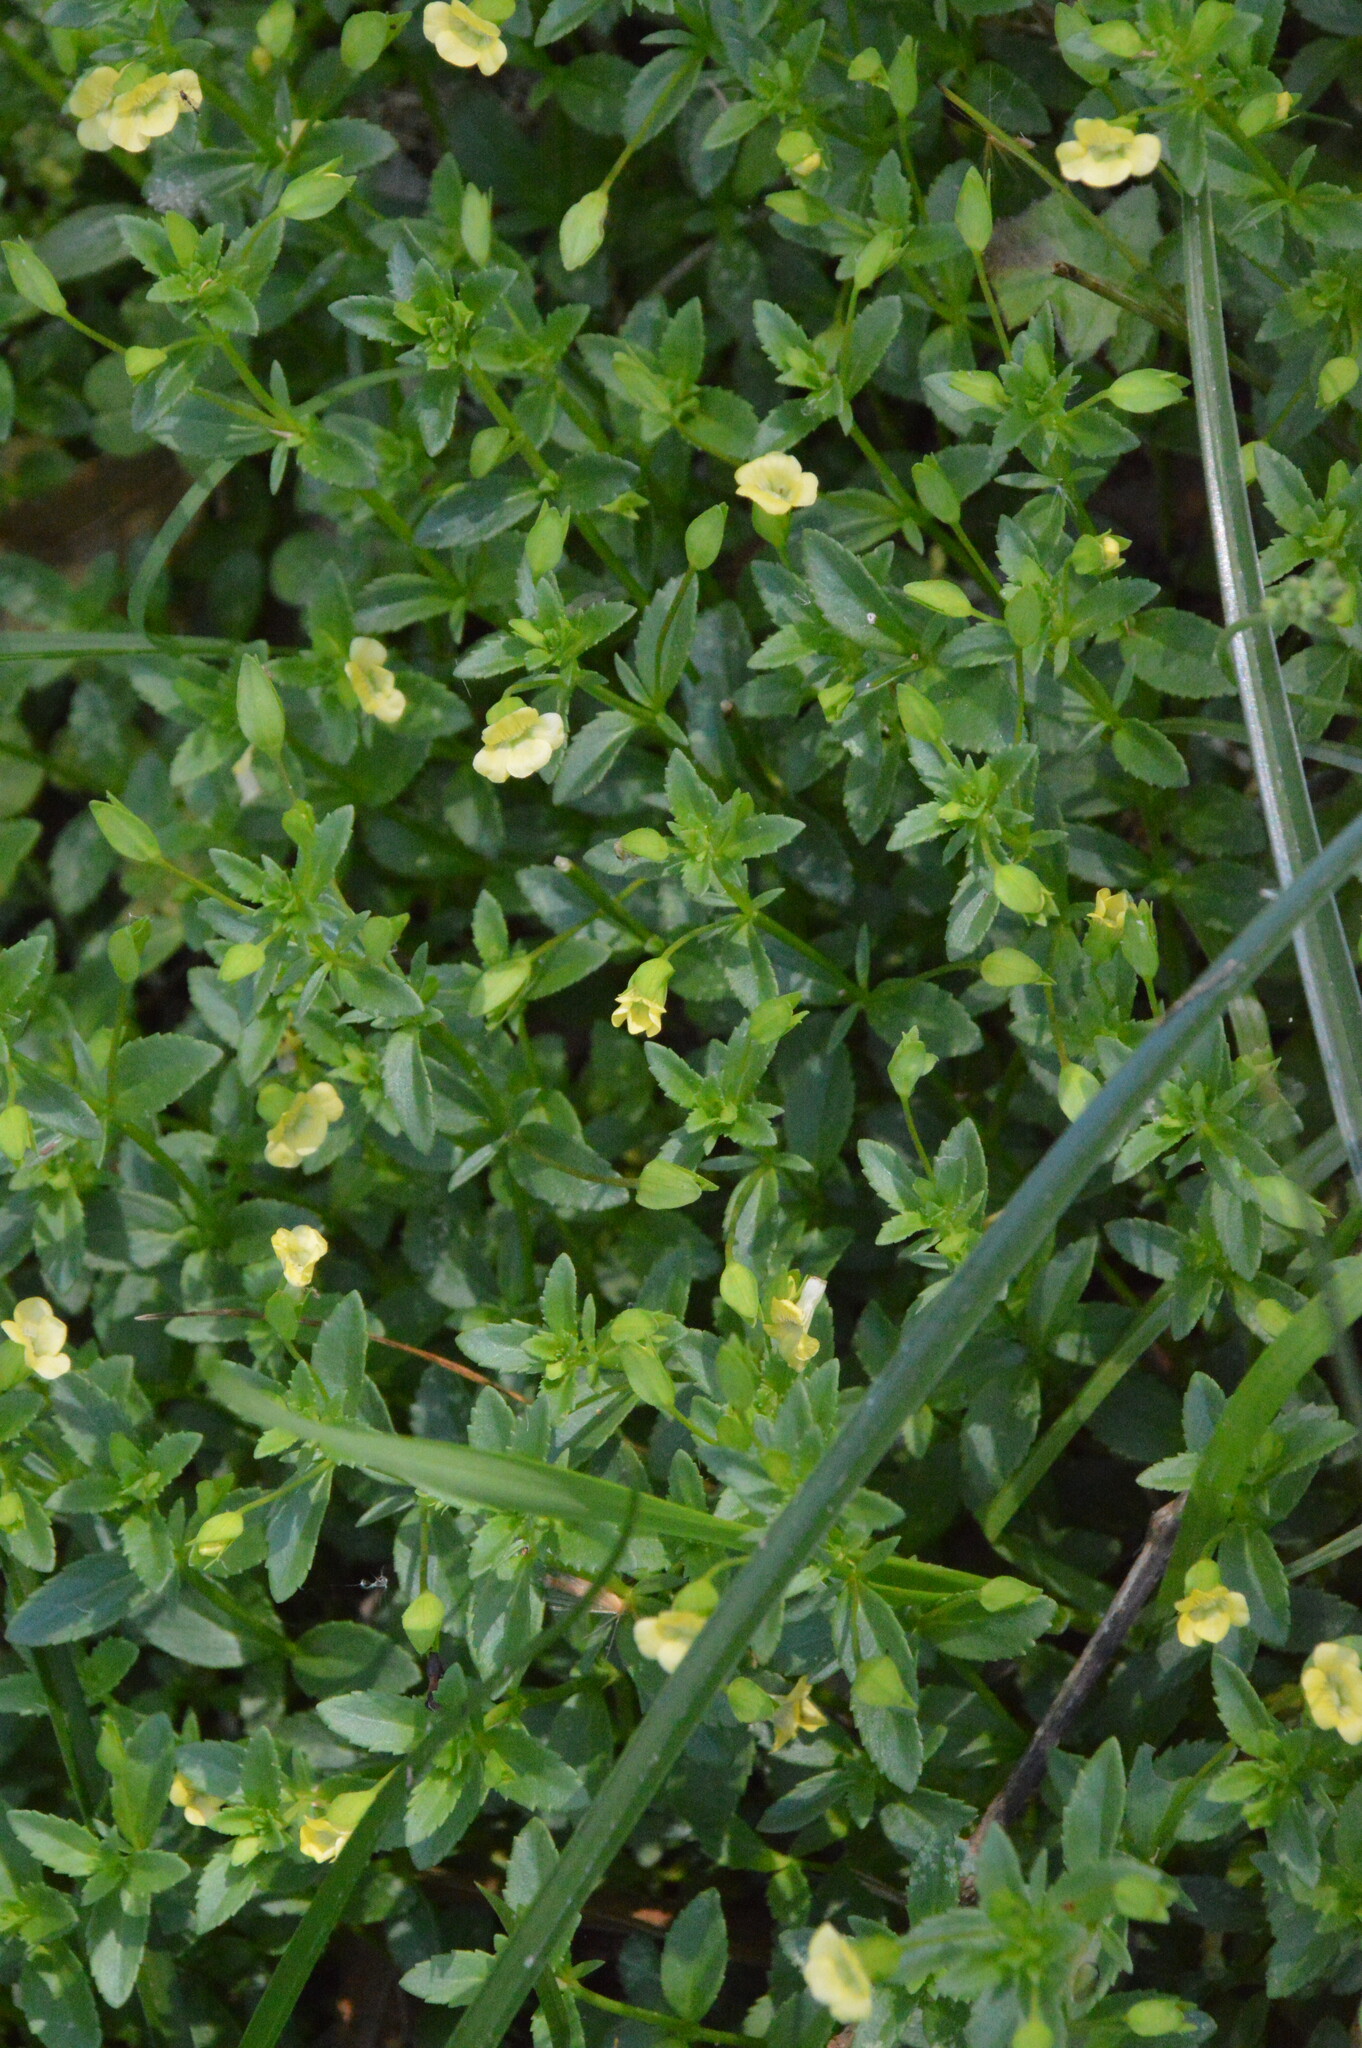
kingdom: Plantae
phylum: Tracheophyta
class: Magnoliopsida
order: Lamiales
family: Plantaginaceae
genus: Mecardonia
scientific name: Mecardonia procumbens
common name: Baby jump-up
